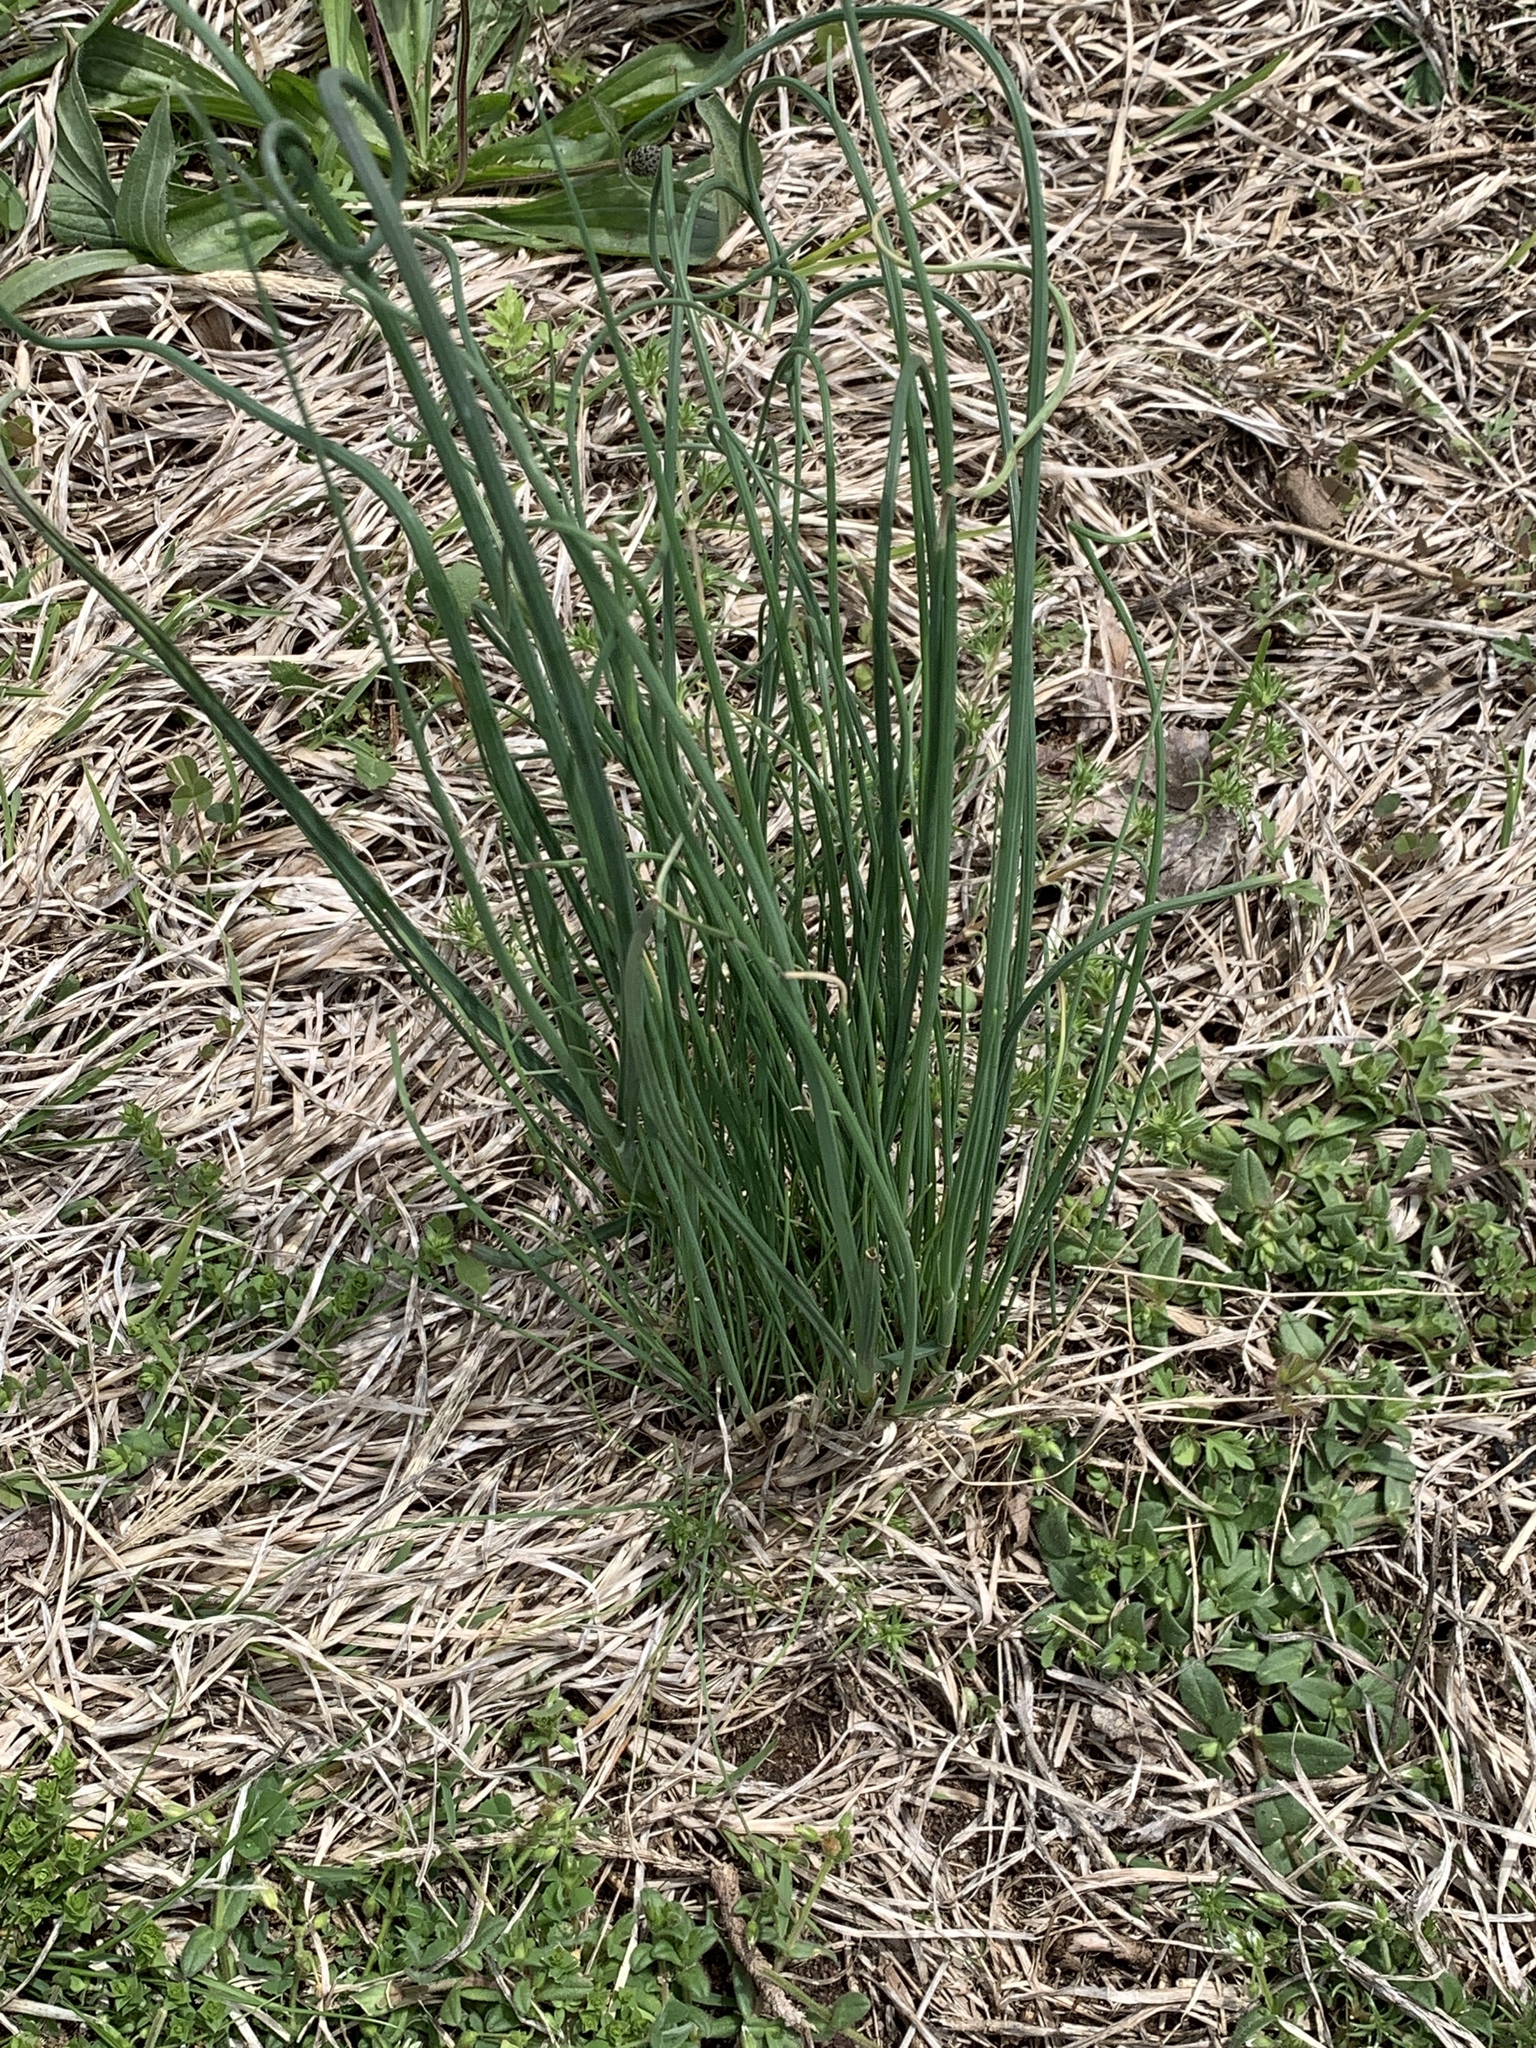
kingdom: Plantae
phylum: Tracheophyta
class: Liliopsida
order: Asparagales
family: Amaryllidaceae
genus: Allium
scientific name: Allium vineale
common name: Crow garlic
